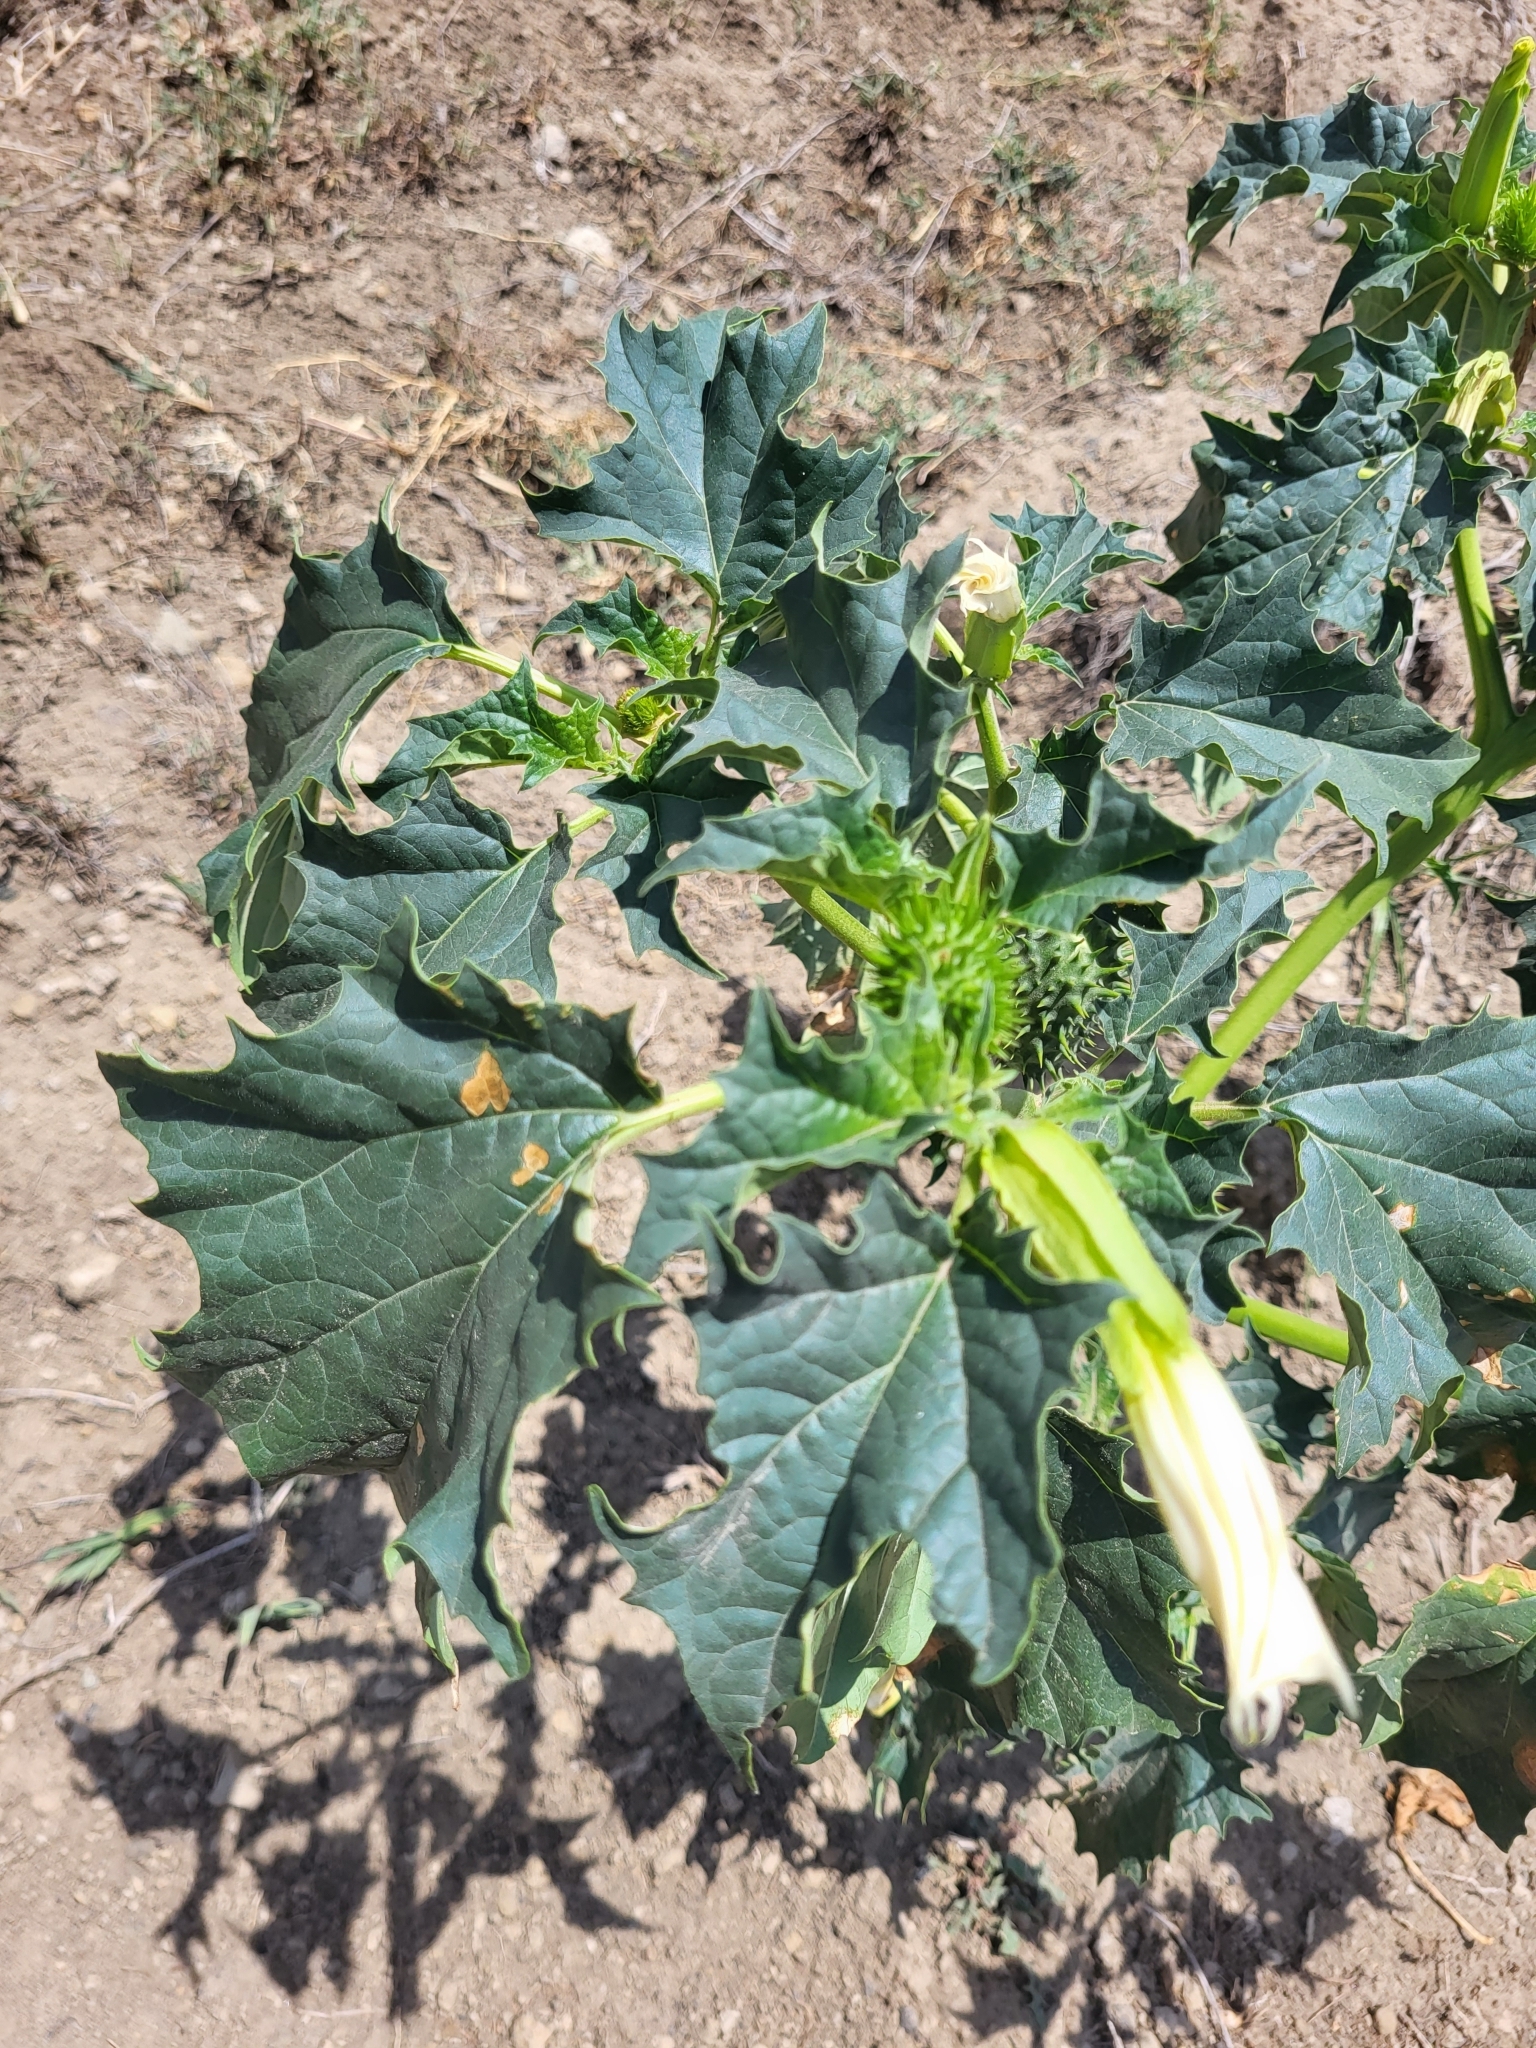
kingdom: Plantae
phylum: Tracheophyta
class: Magnoliopsida
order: Solanales
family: Solanaceae
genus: Datura
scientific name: Datura stramonium
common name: Thorn-apple
